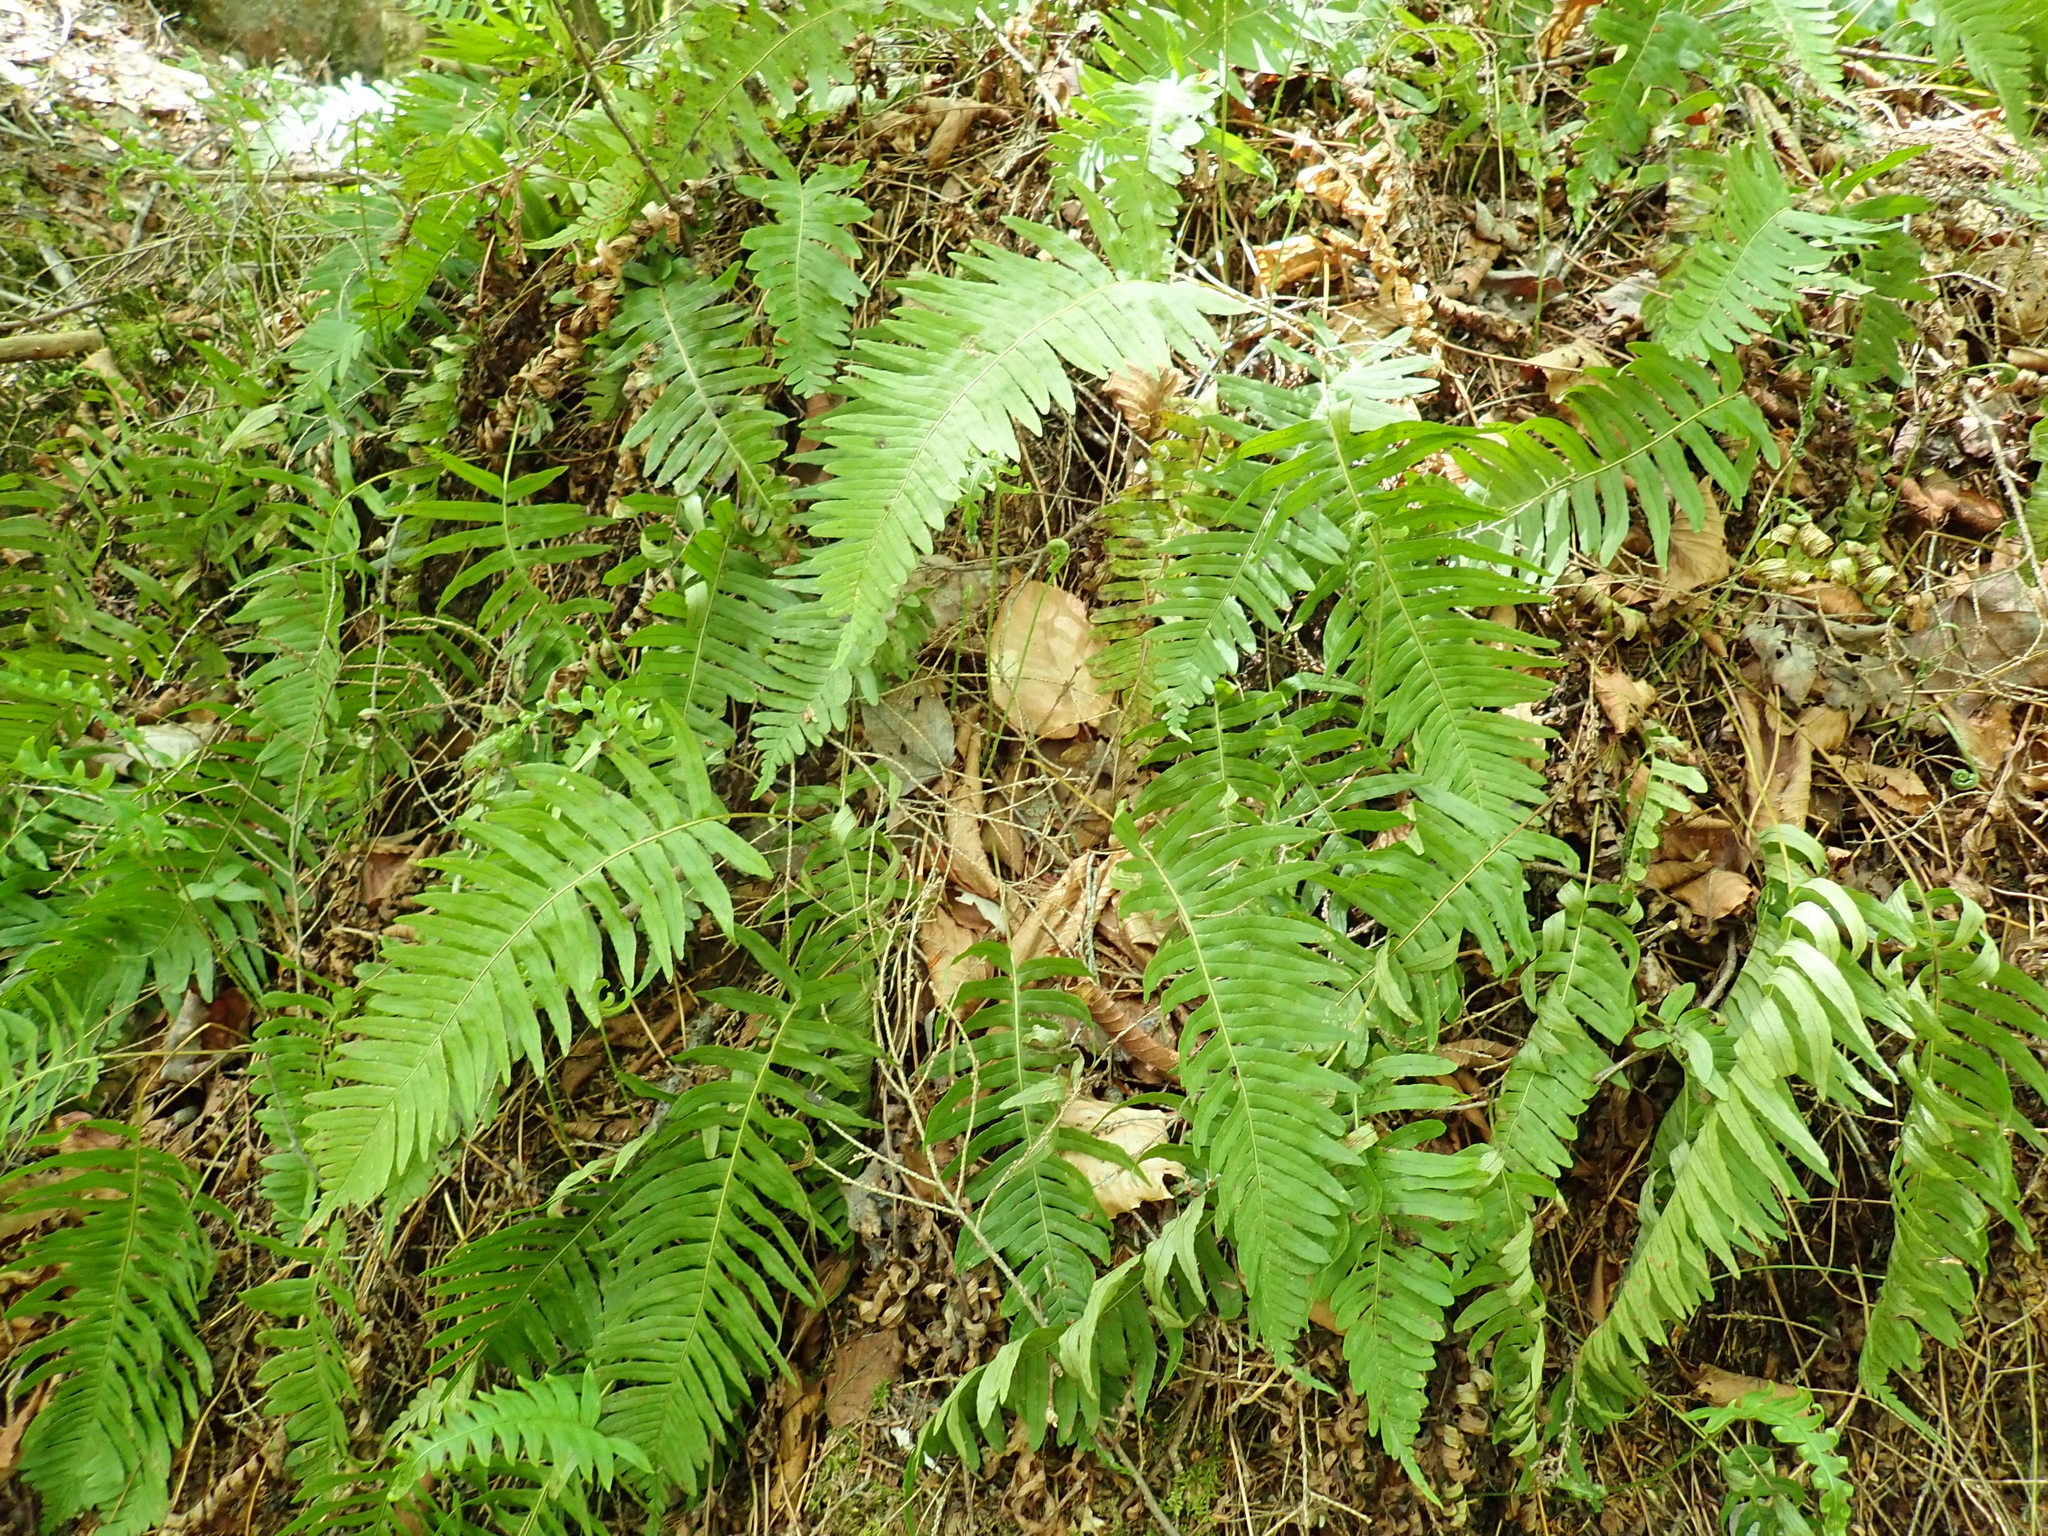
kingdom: Plantae
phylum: Tracheophyta
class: Polypodiopsida
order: Polypodiales
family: Polypodiaceae
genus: Polypodium
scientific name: Polypodium
